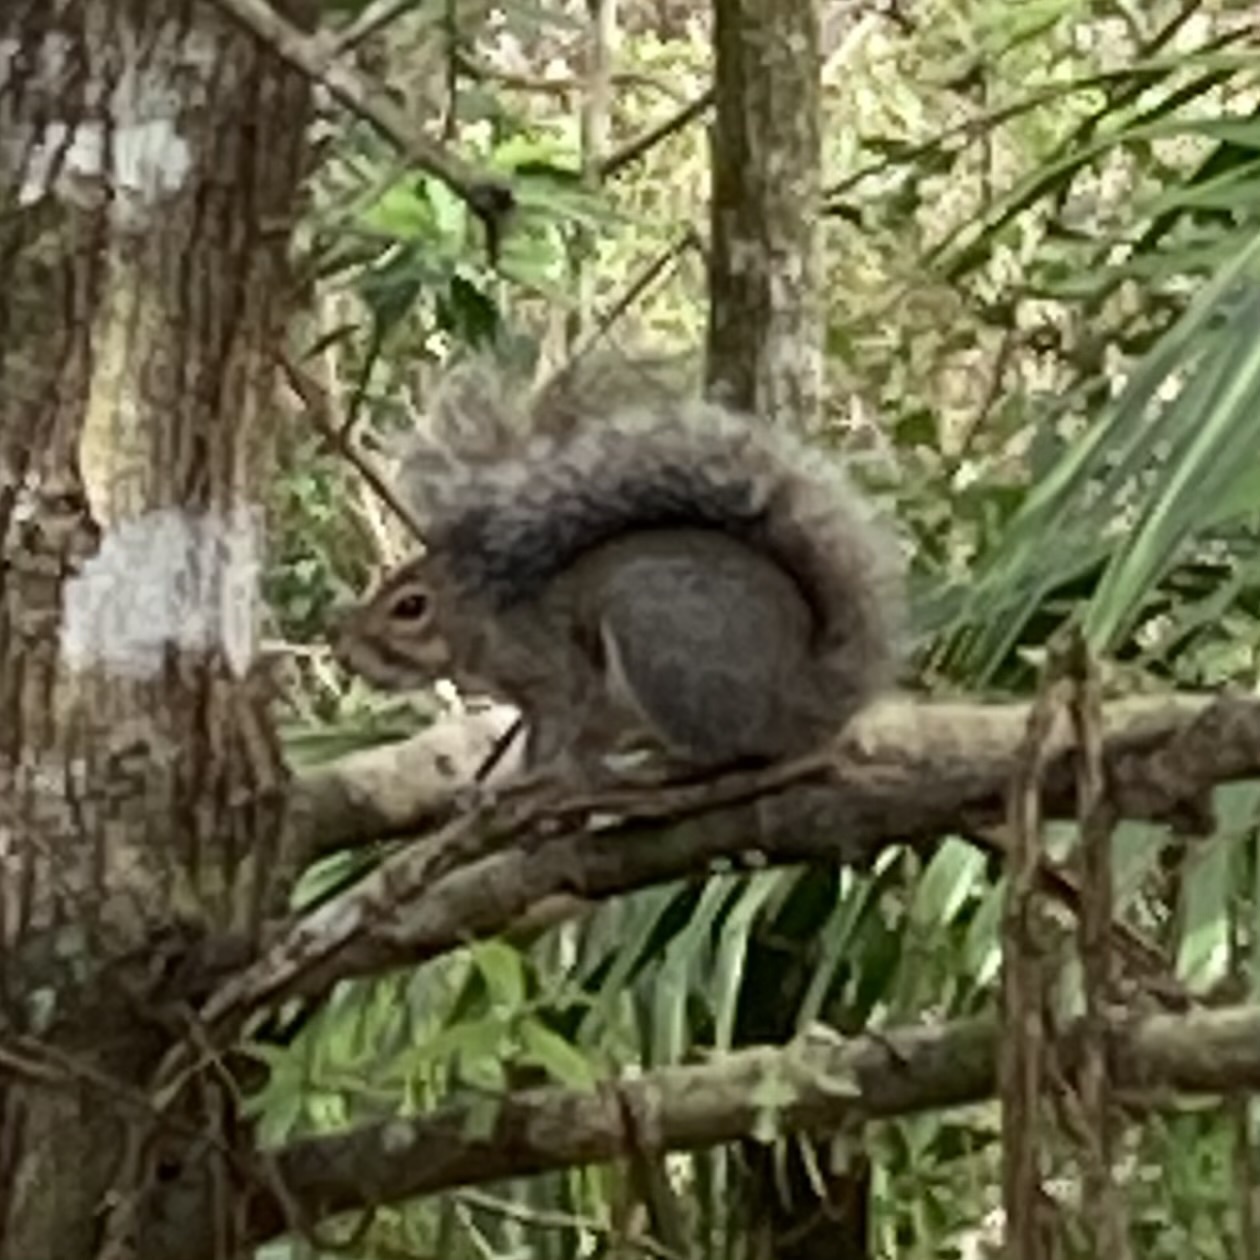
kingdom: Animalia
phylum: Chordata
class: Mammalia
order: Rodentia
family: Sciuridae
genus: Sciurus
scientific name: Sciurus carolinensis
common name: Eastern gray squirrel
